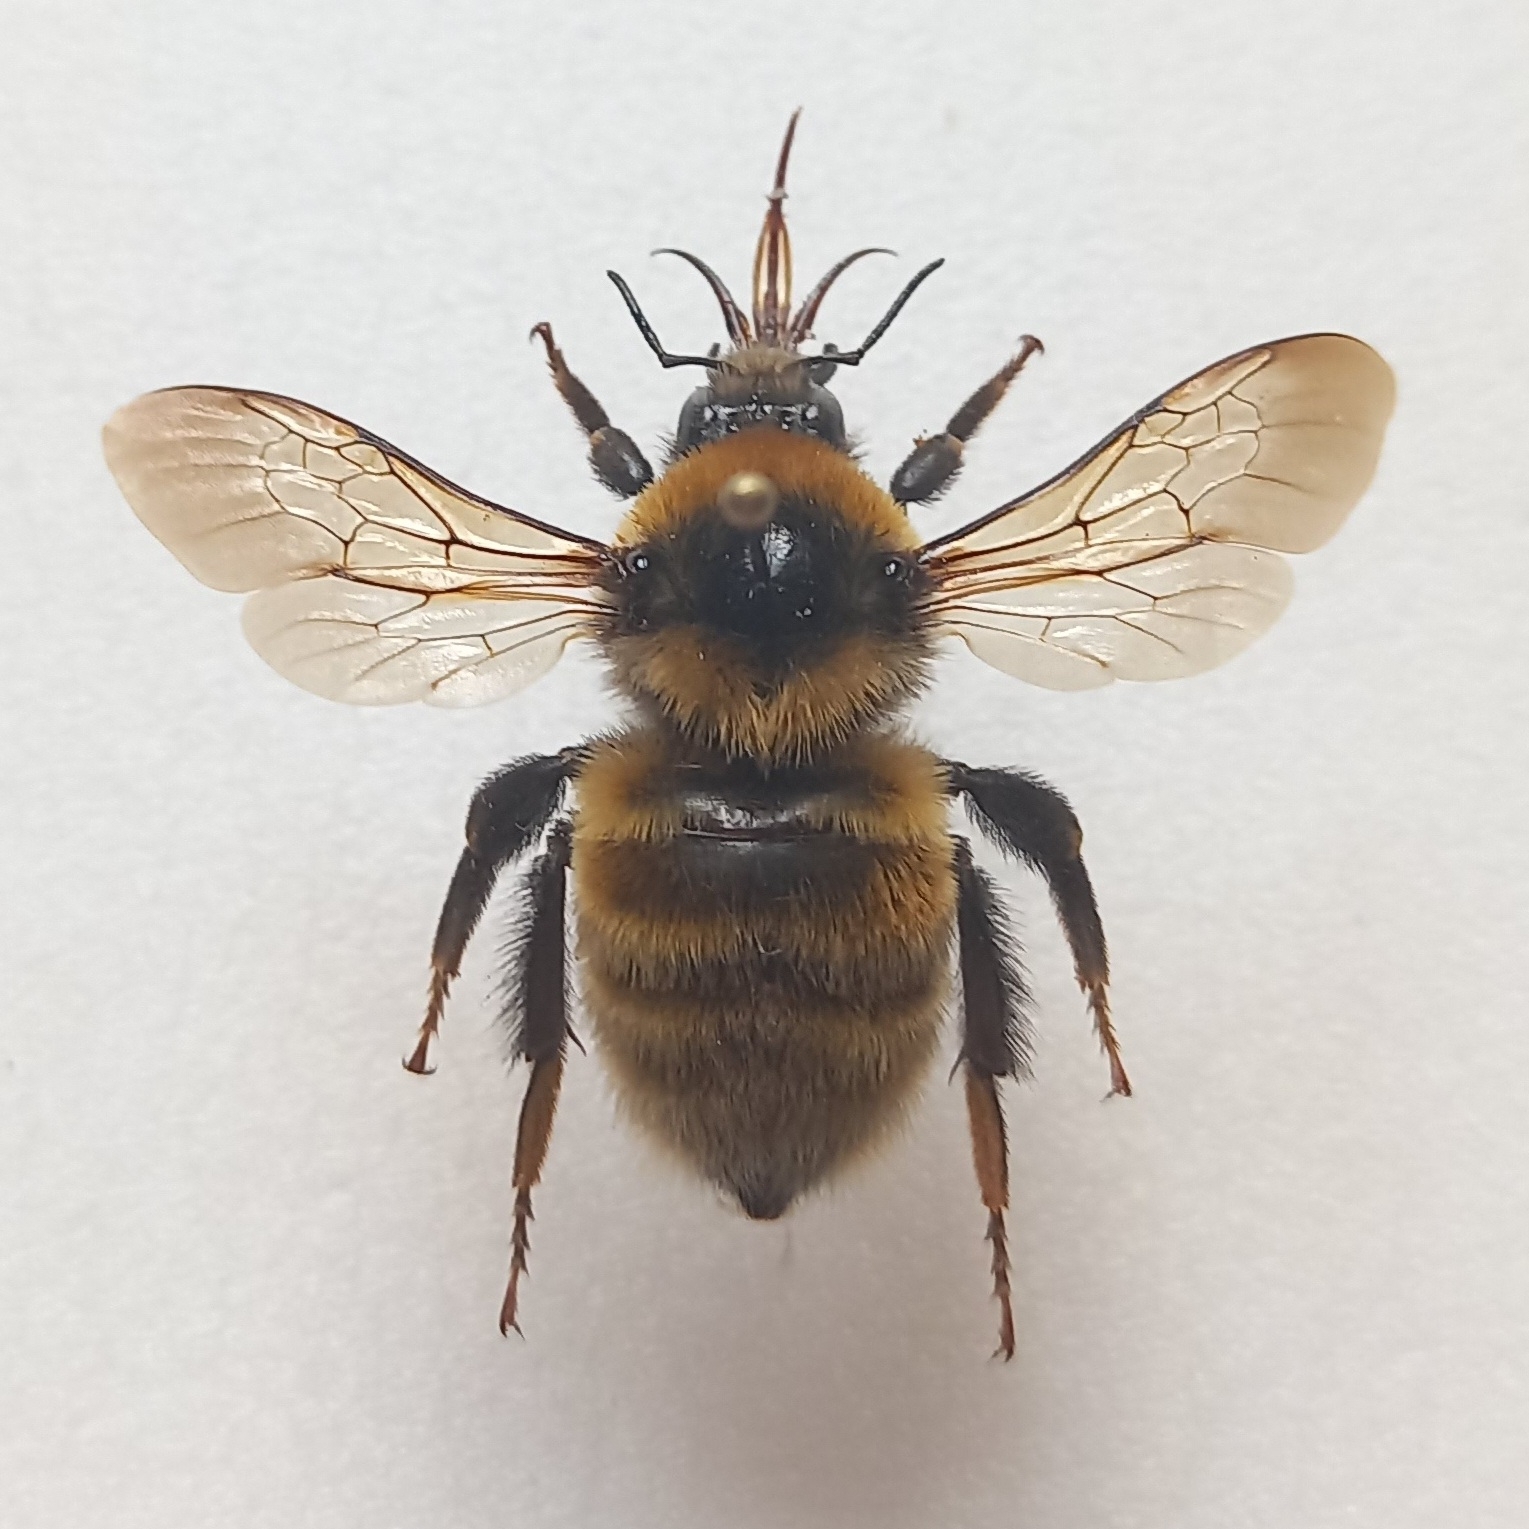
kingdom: Animalia
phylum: Arthropoda
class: Insecta
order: Hymenoptera
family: Apidae
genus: Bombus
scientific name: Bombus distinguendus
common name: Great yellow humble-bee
